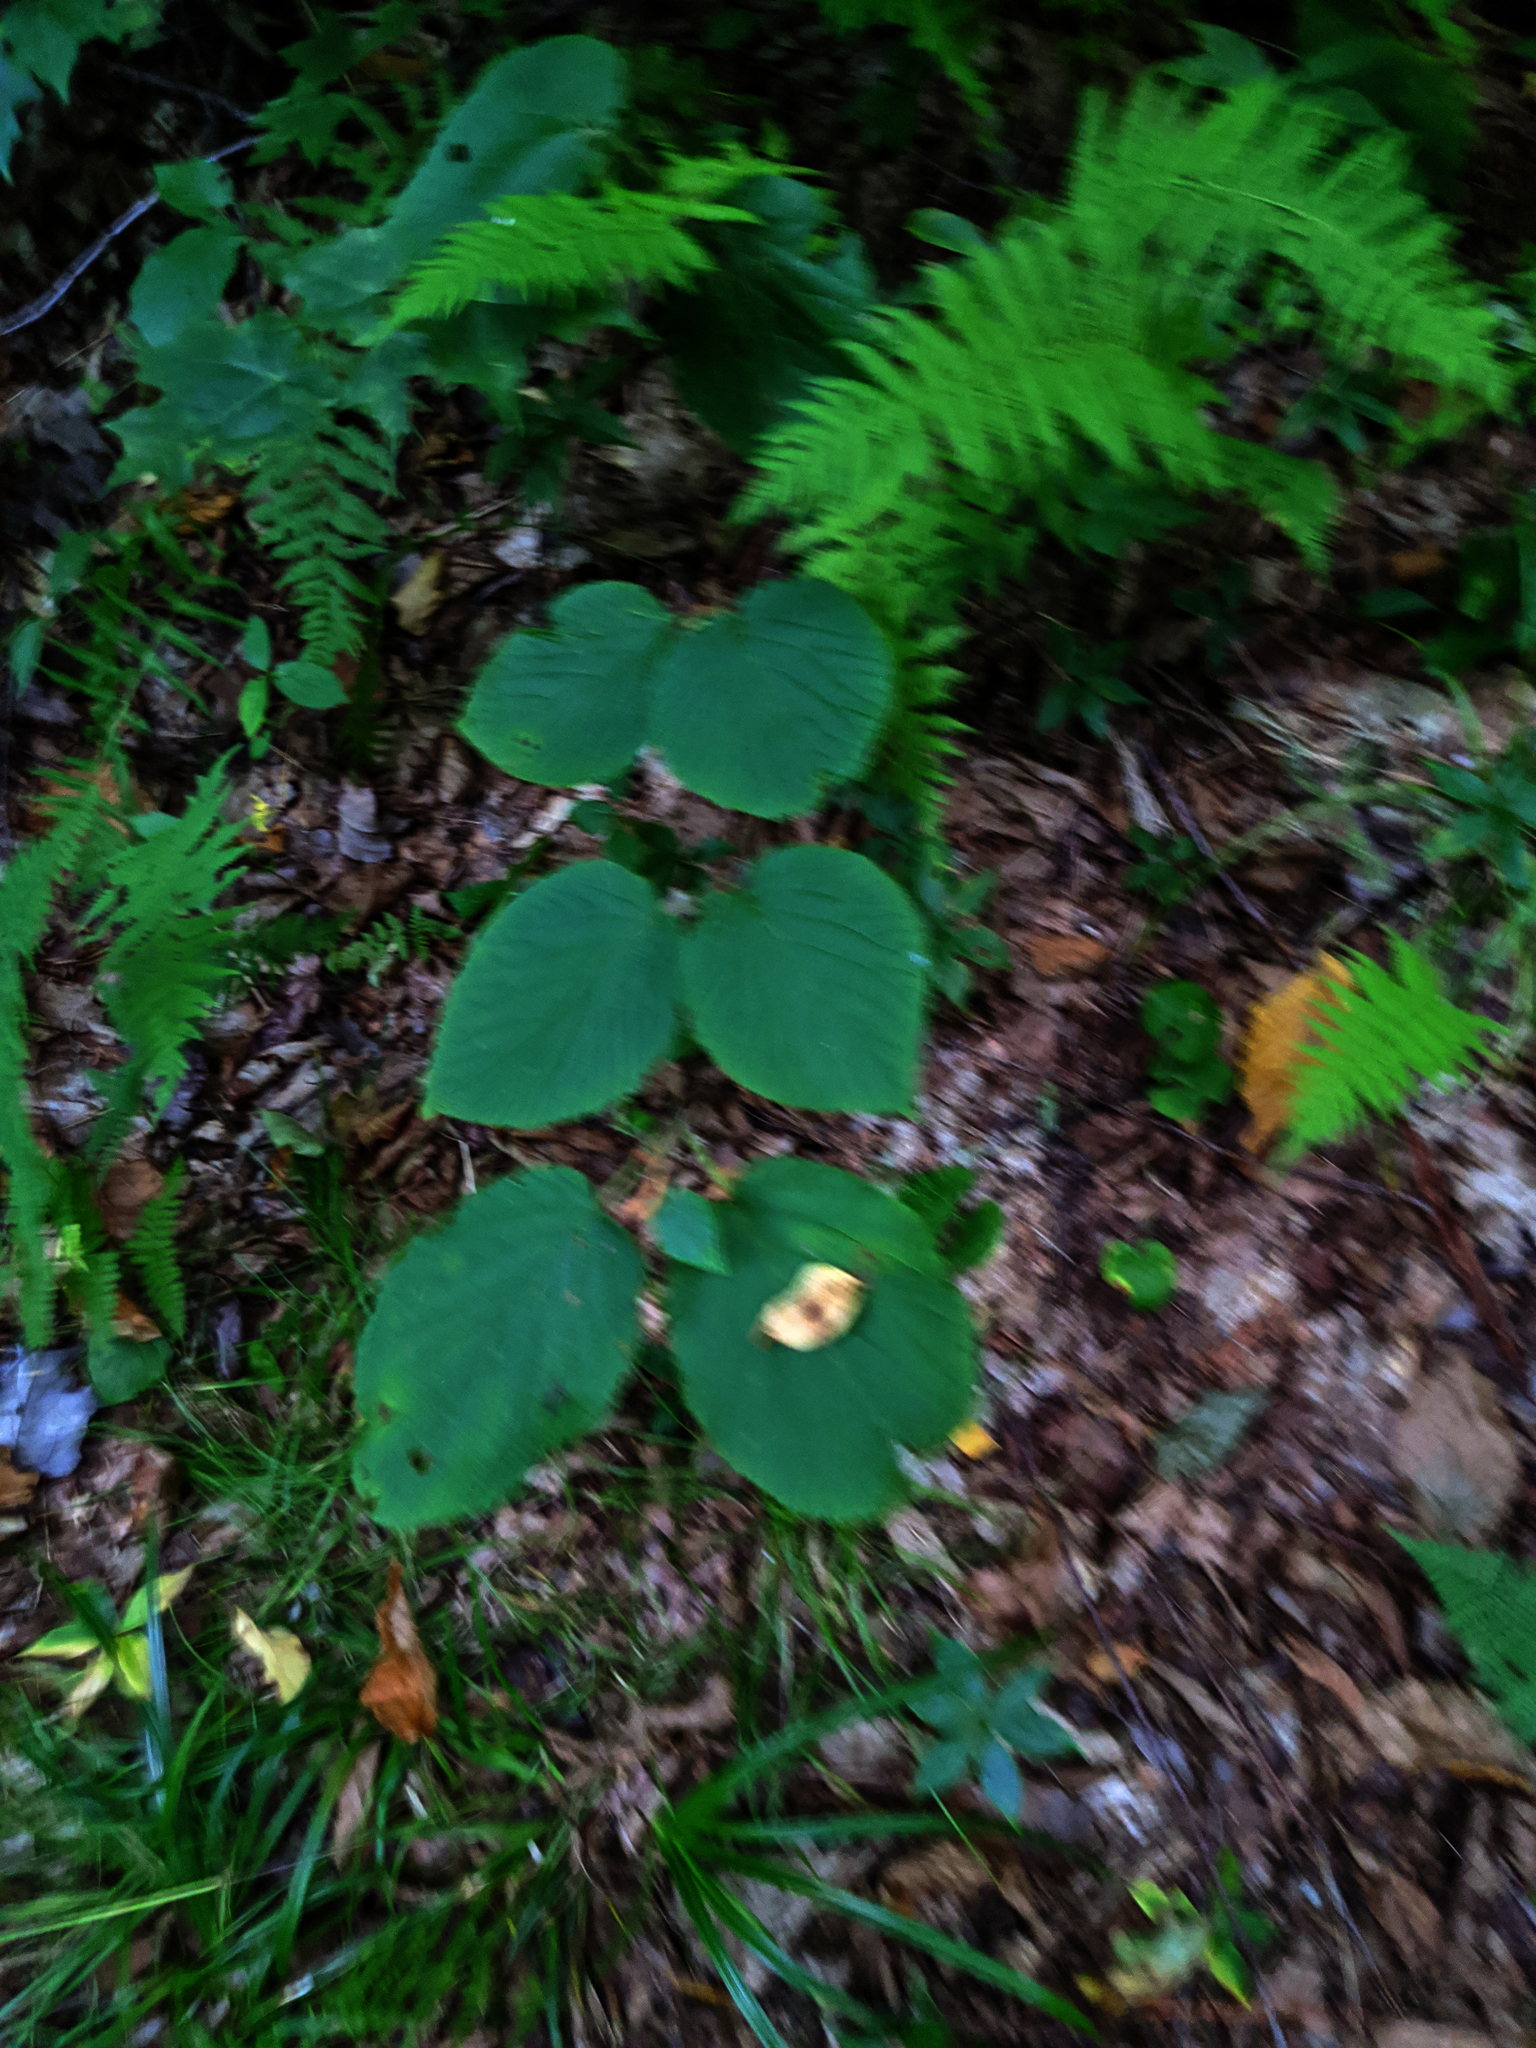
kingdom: Plantae
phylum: Tracheophyta
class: Magnoliopsida
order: Dipsacales
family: Viburnaceae
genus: Viburnum
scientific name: Viburnum lantanoides
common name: Hobblebush
